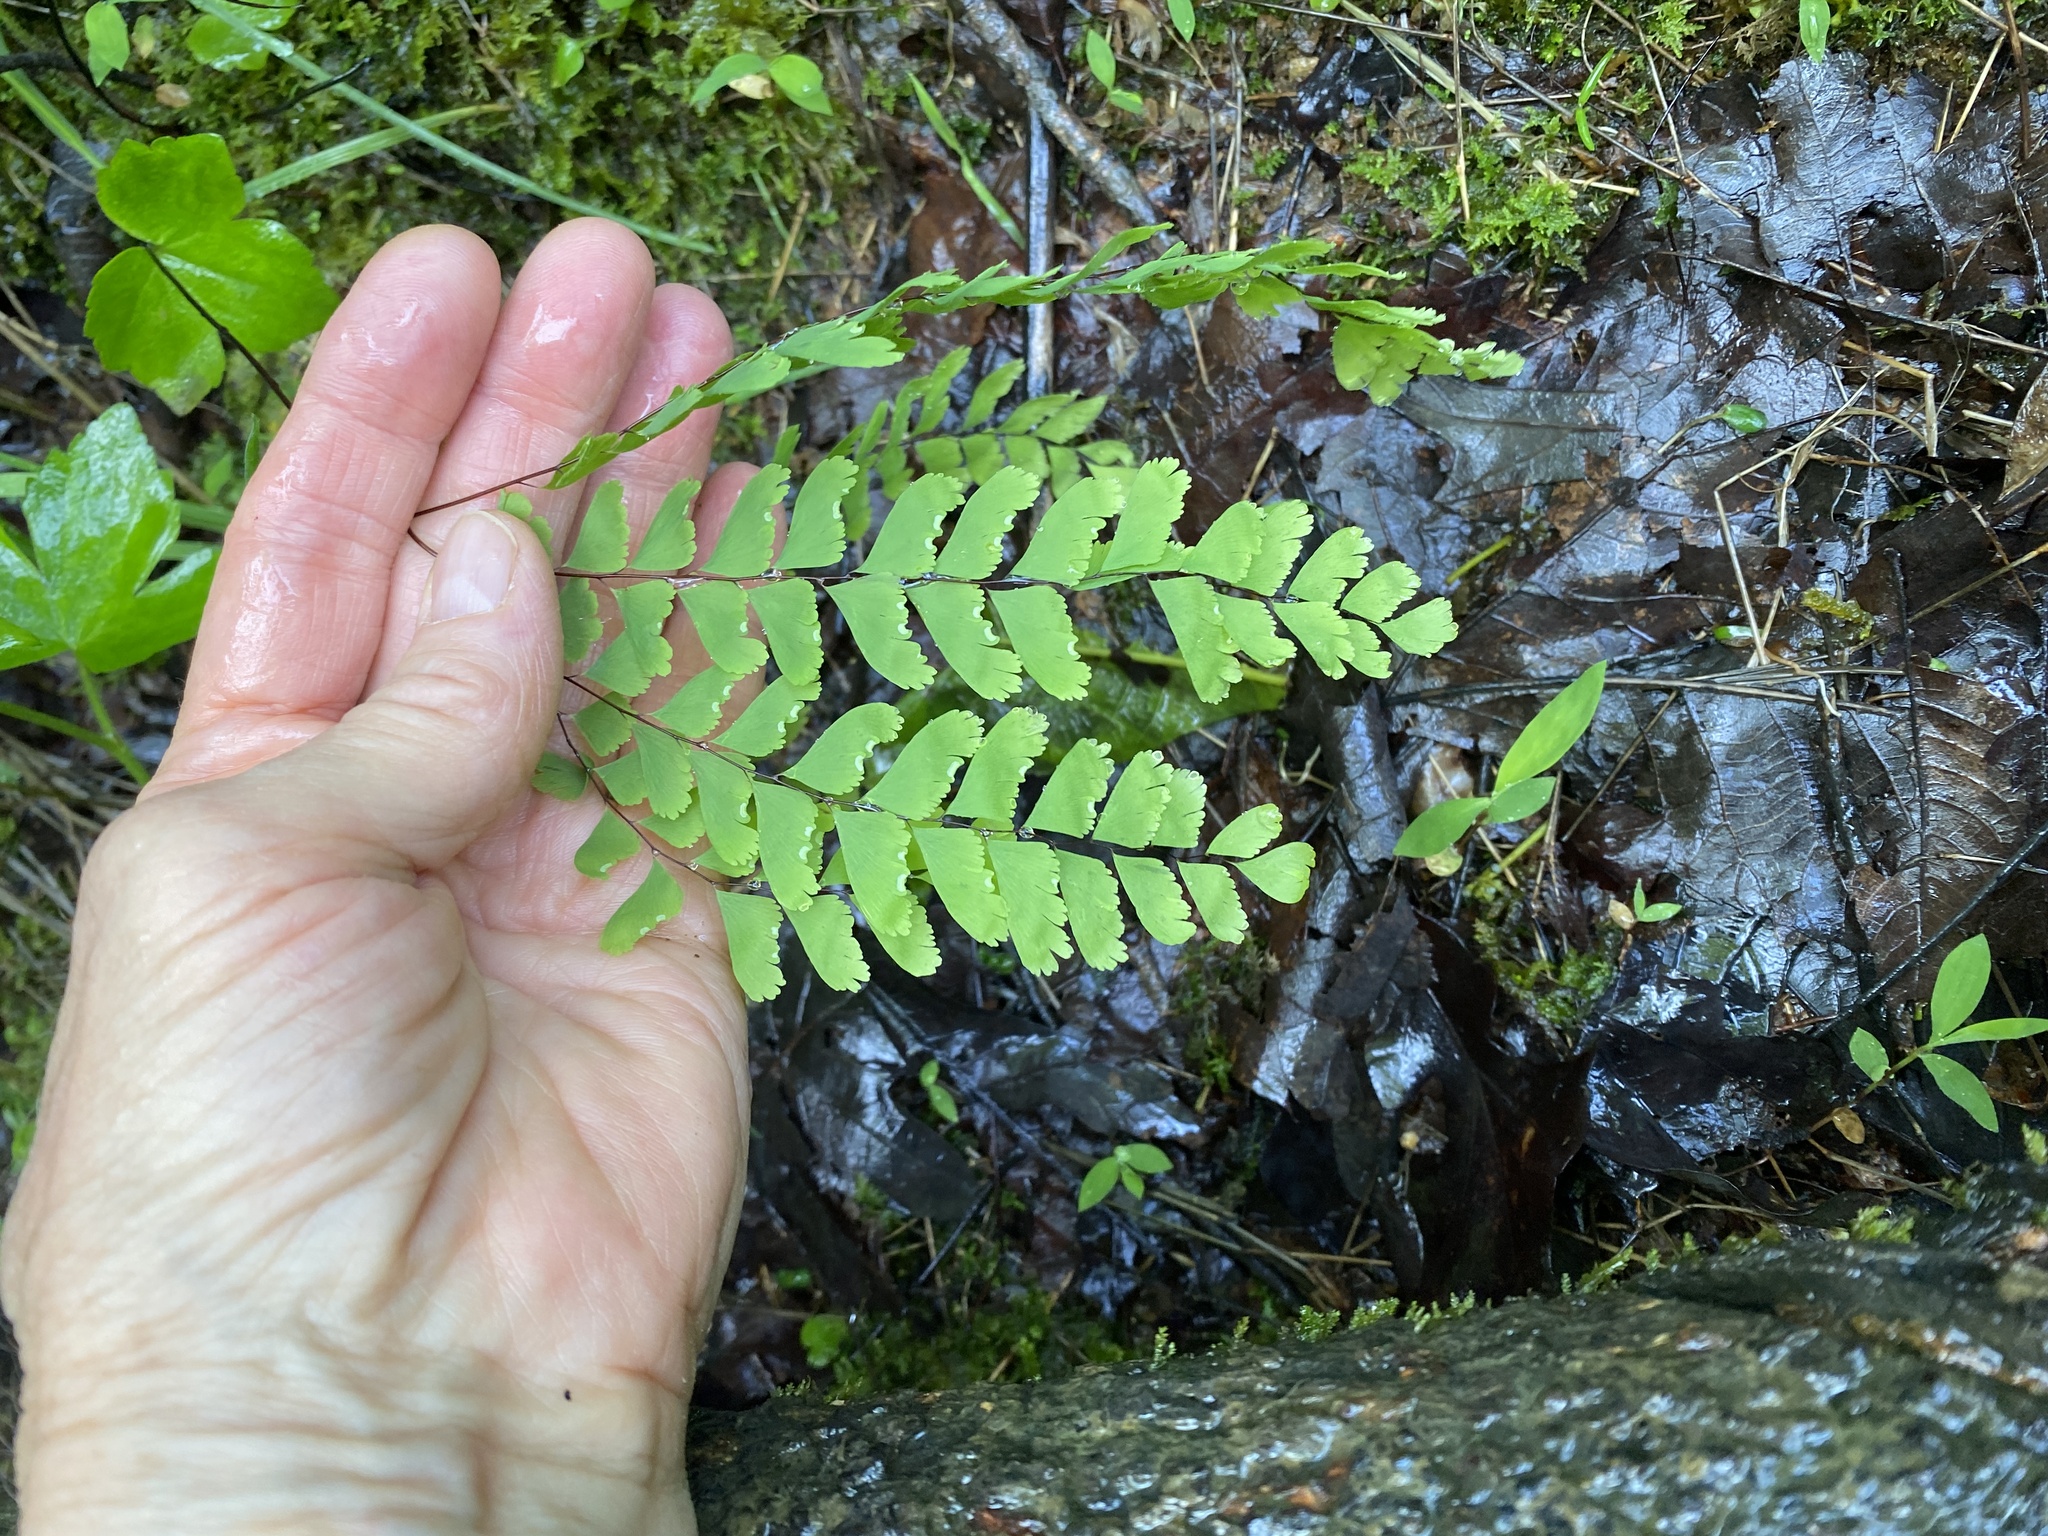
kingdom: Plantae
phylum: Tracheophyta
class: Polypodiopsida
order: Polypodiales
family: Pteridaceae
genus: Adiantum
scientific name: Adiantum pedatum
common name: Five-finger fern
